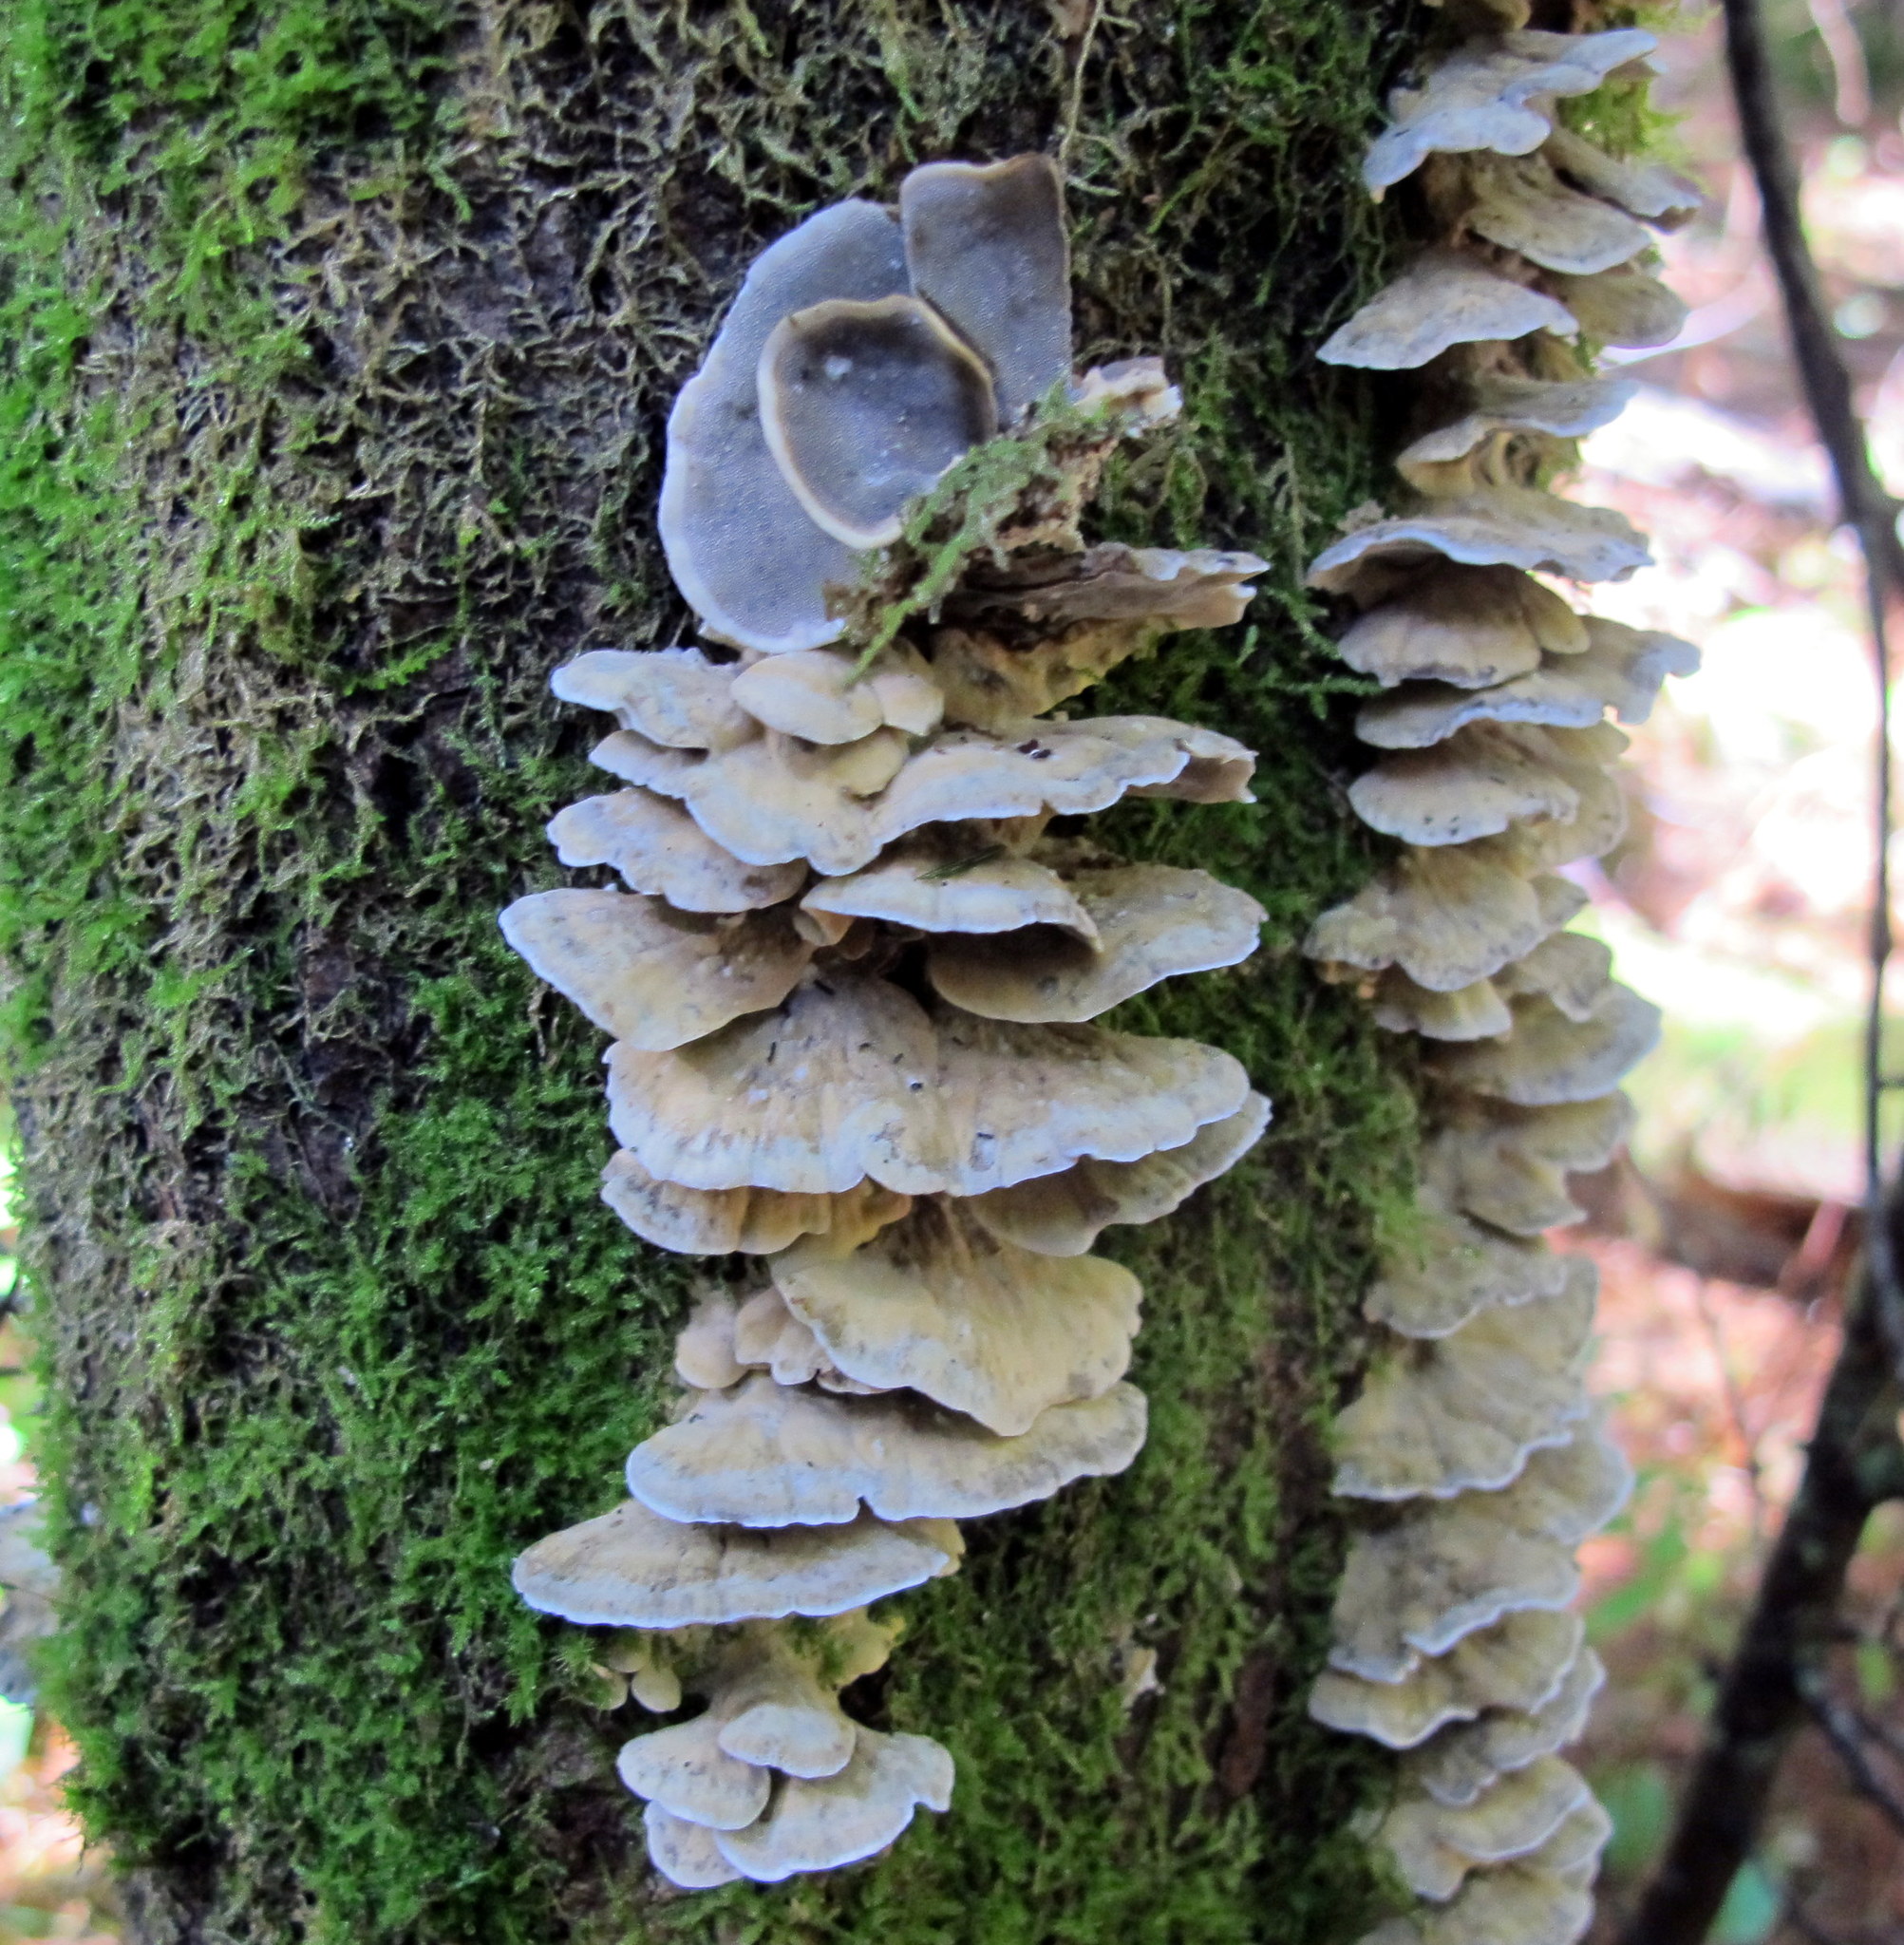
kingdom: Fungi
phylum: Basidiomycota
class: Agaricomycetes
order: Polyporales
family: Phanerochaetaceae
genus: Bjerkandera
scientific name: Bjerkandera adusta
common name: Smoky bracket
